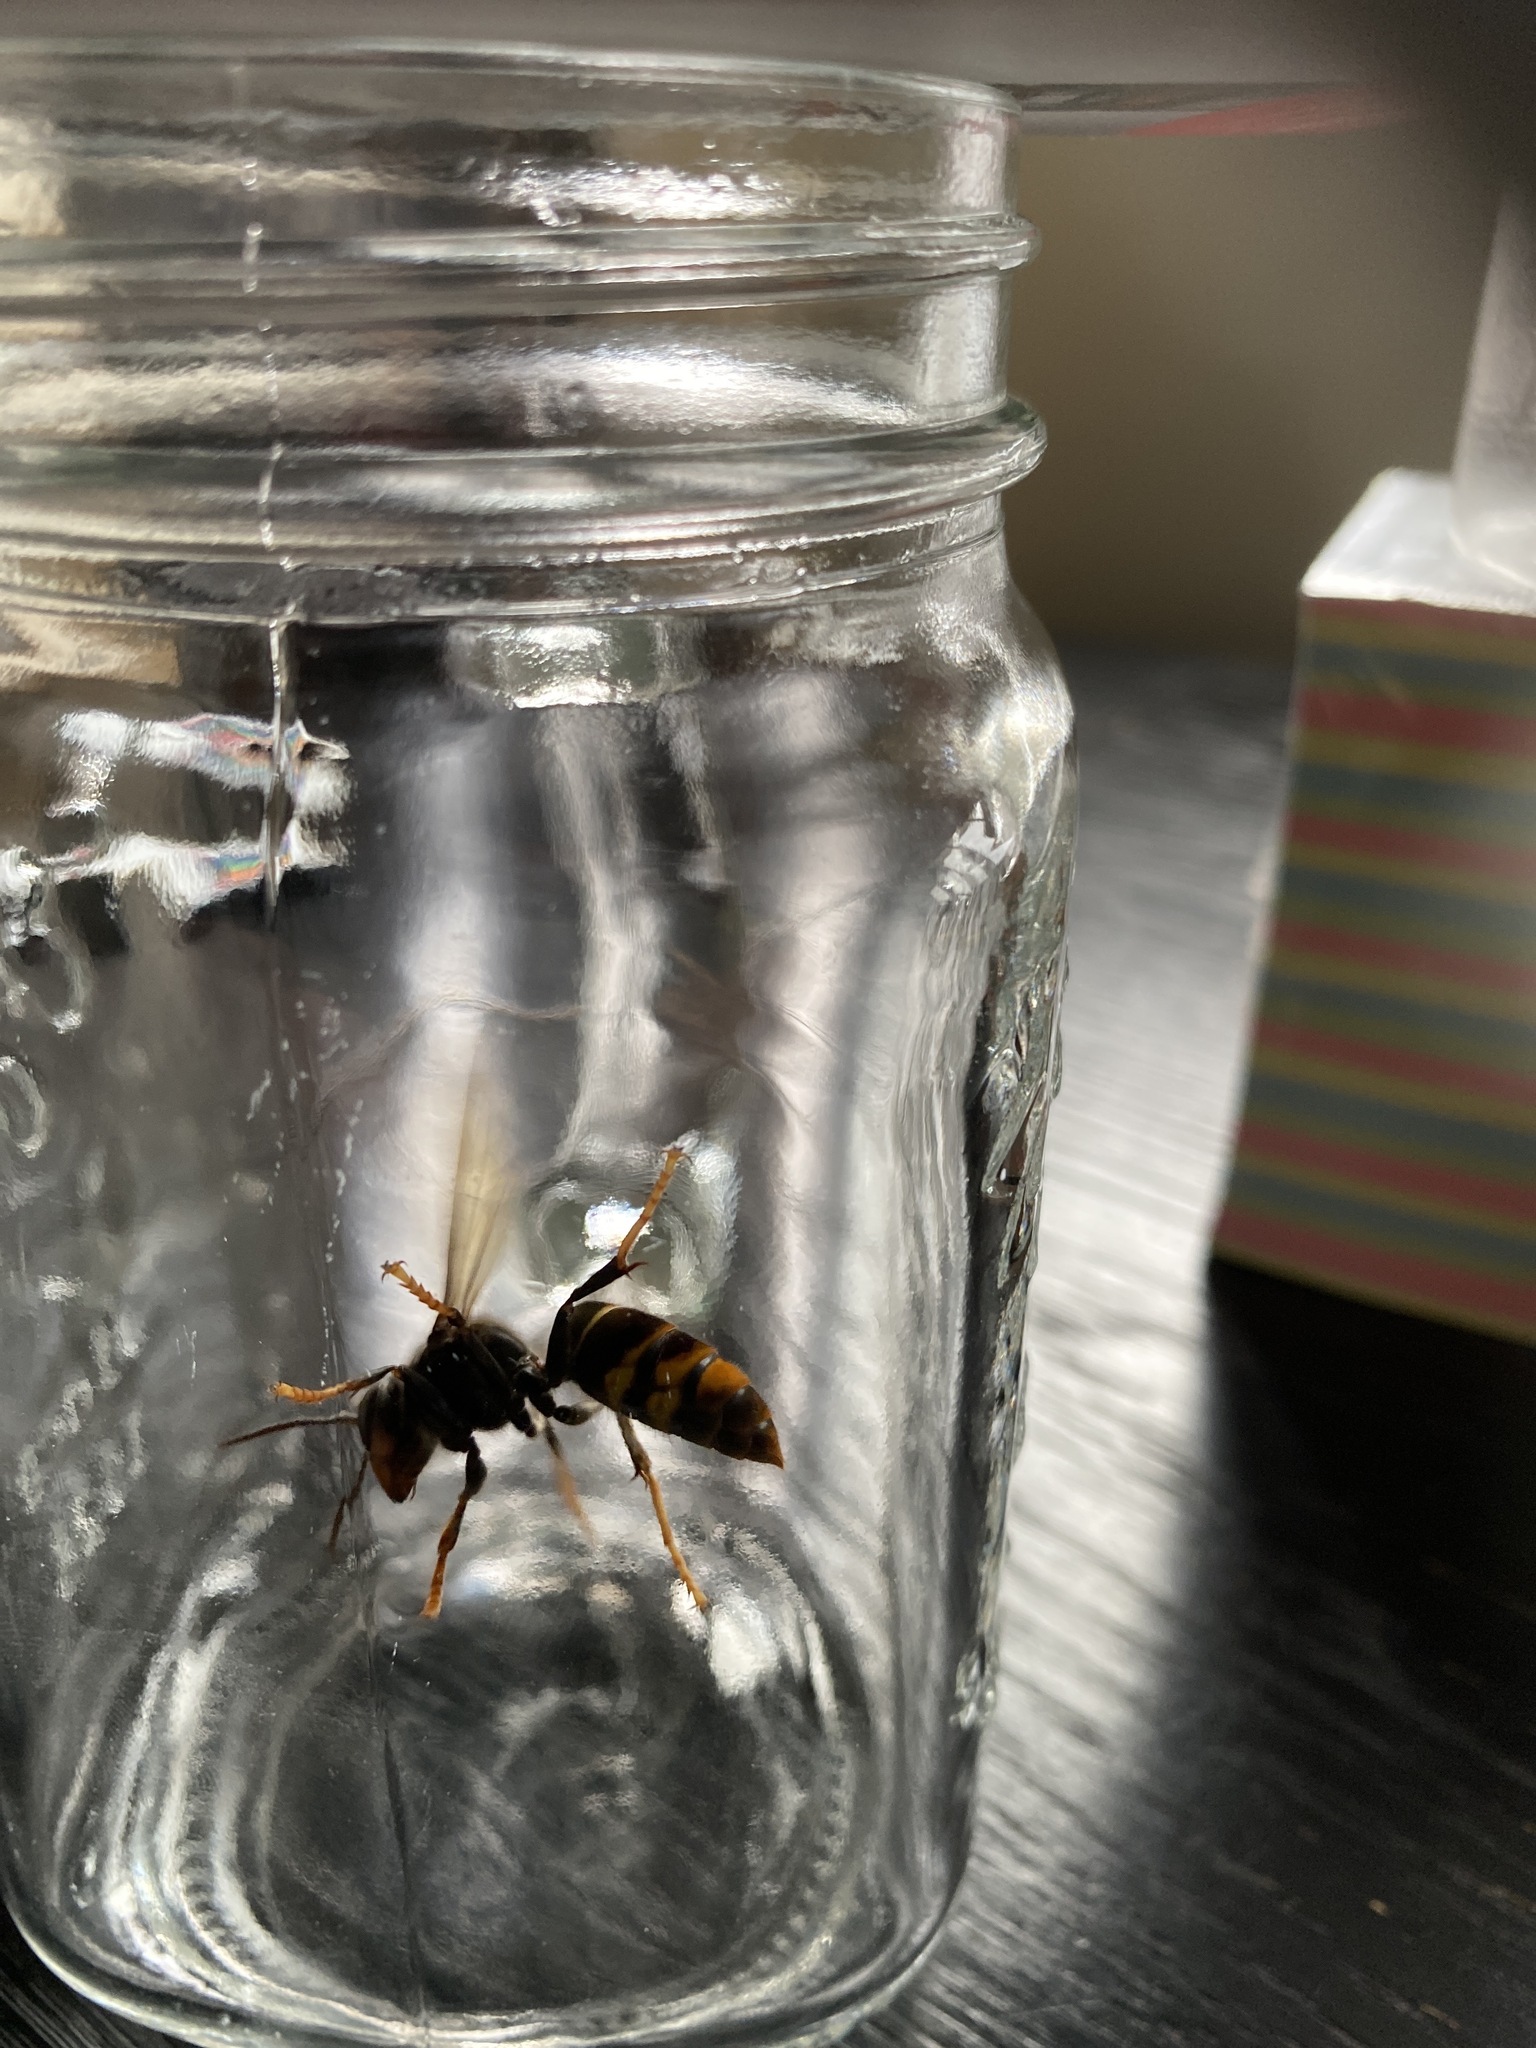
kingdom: Animalia
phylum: Arthropoda
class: Insecta
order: Hymenoptera
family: Vespidae
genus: Vespa
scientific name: Vespa velutina
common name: Asian hornet
